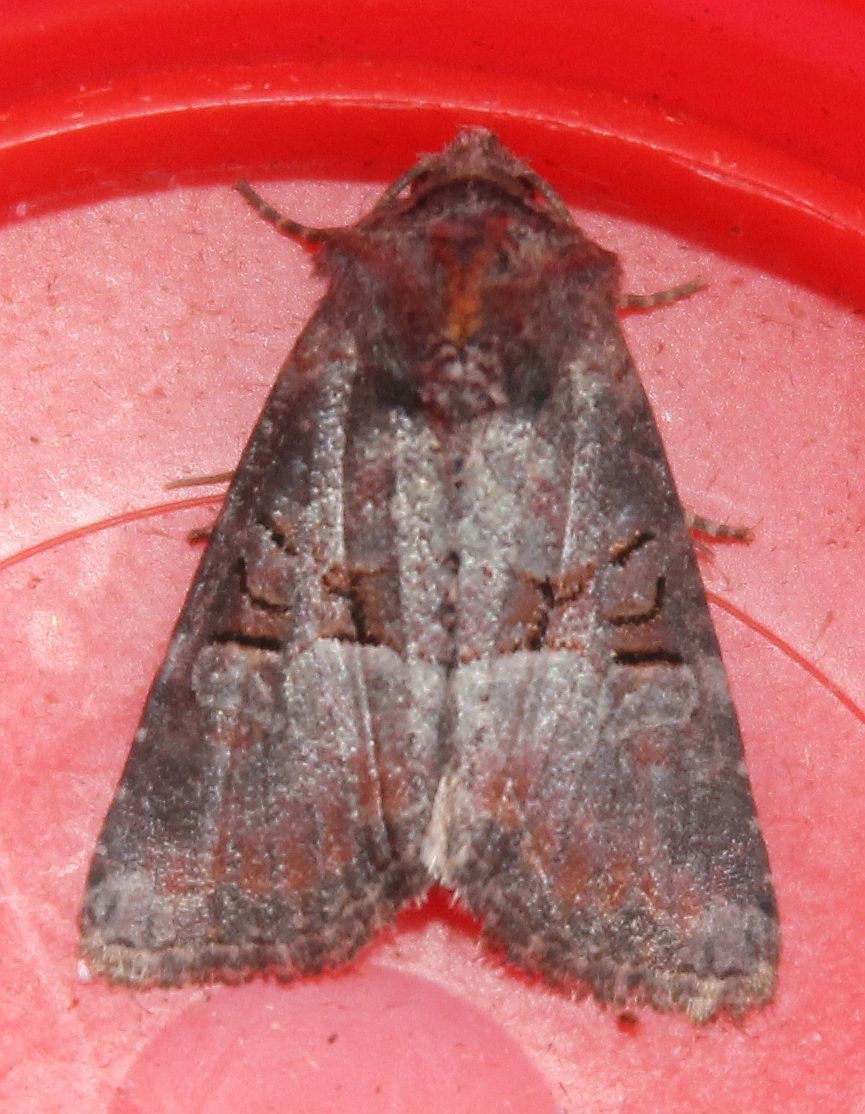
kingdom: Animalia
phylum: Arthropoda
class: Insecta
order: Lepidoptera
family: Noctuidae
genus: Litoligia
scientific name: Litoligia literosa
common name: Rosy minor
